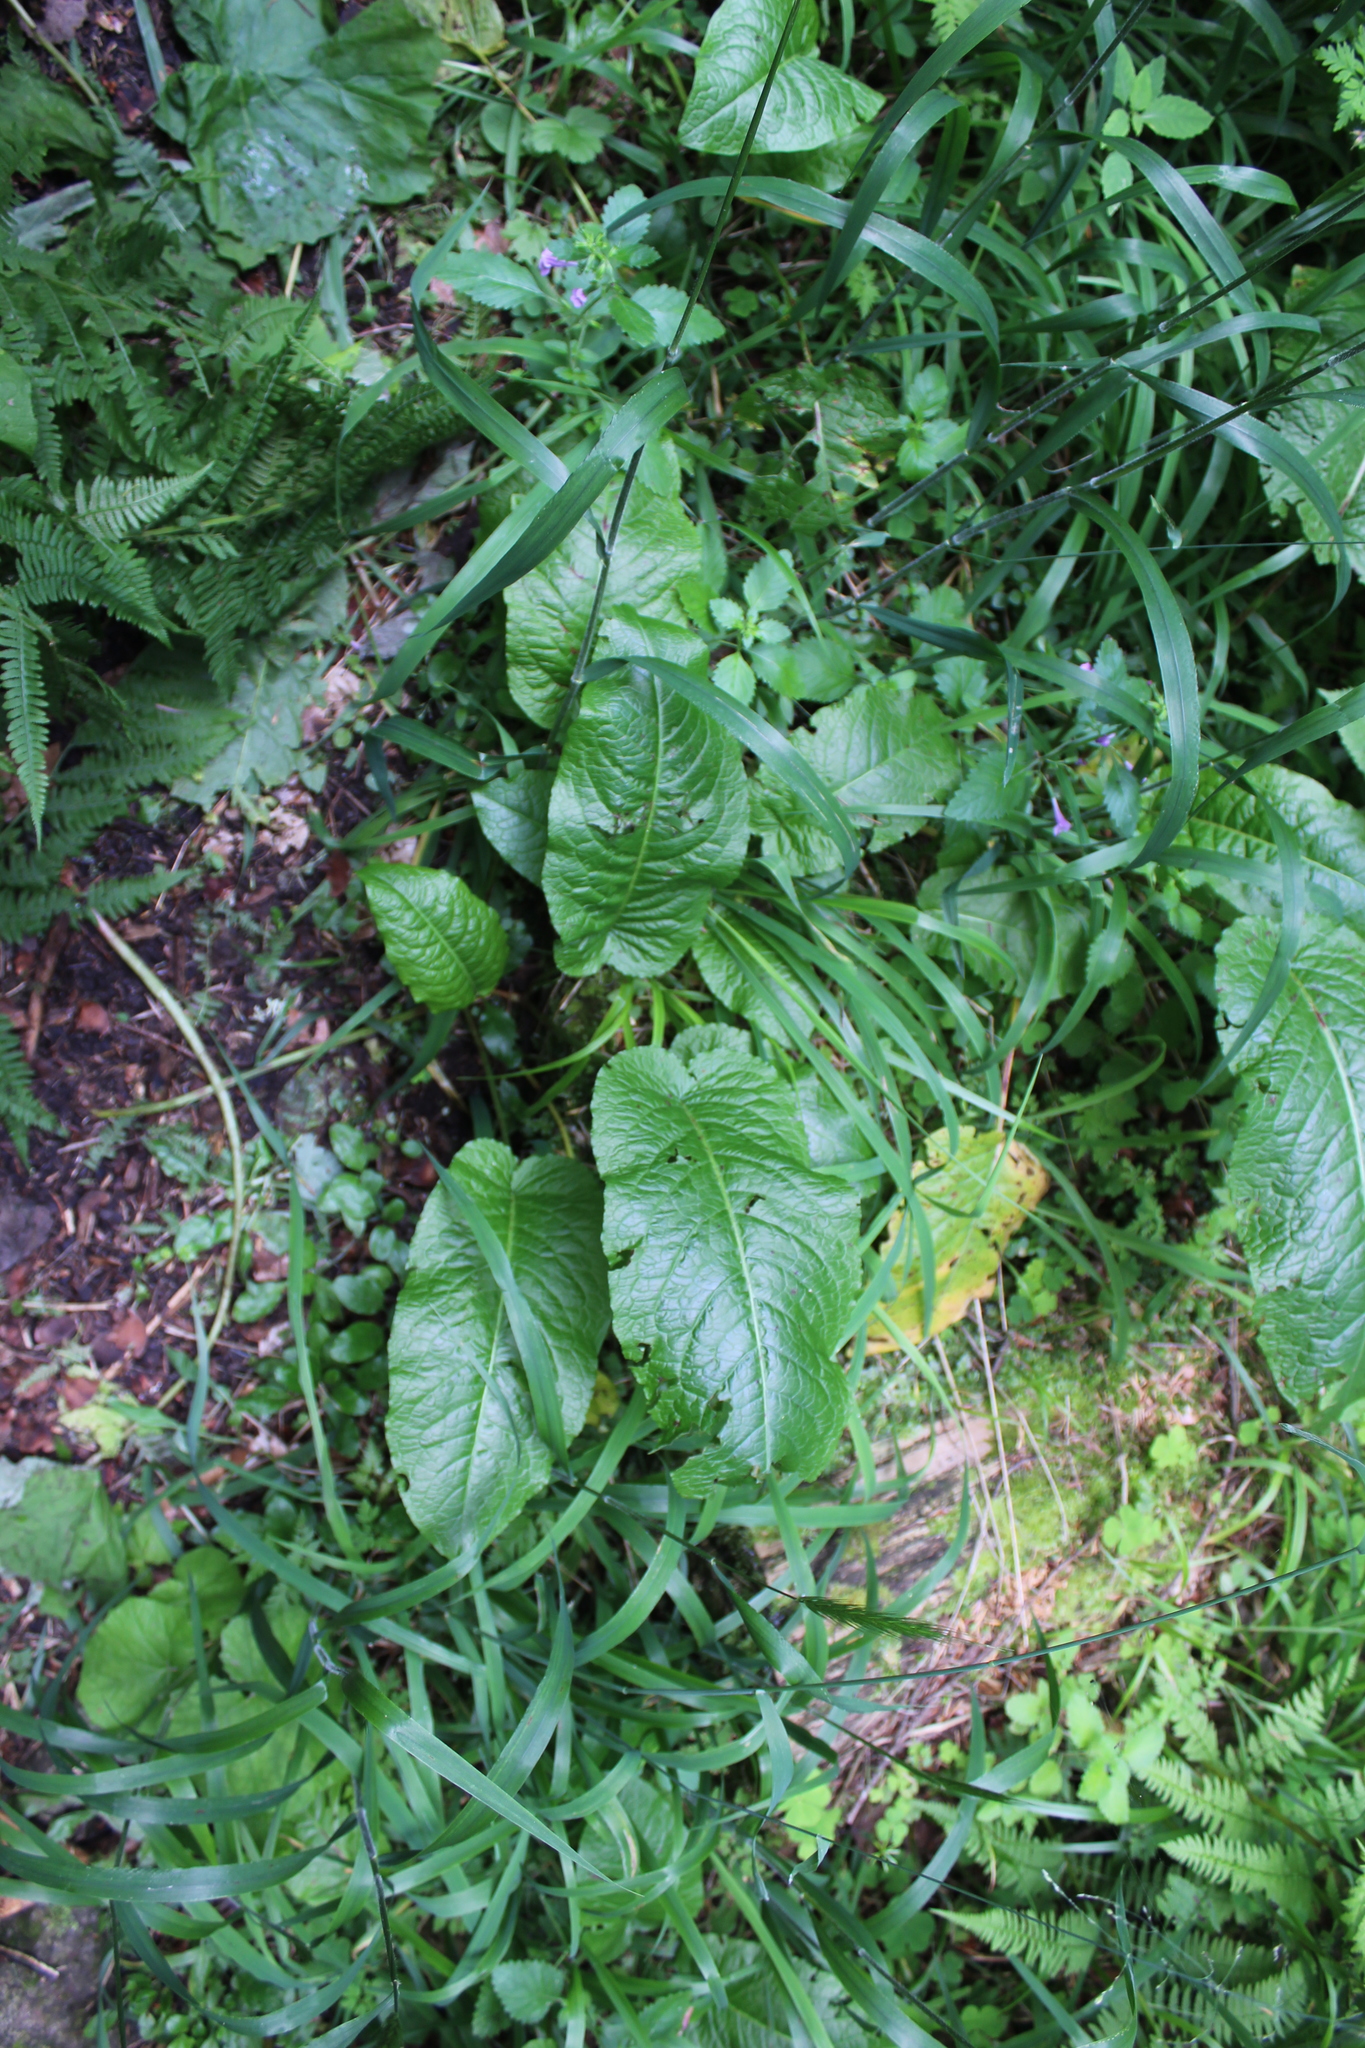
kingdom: Plantae
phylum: Tracheophyta
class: Magnoliopsida
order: Caryophyllales
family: Polygonaceae
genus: Rumex
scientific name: Rumex obtusifolius
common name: Bitter dock
